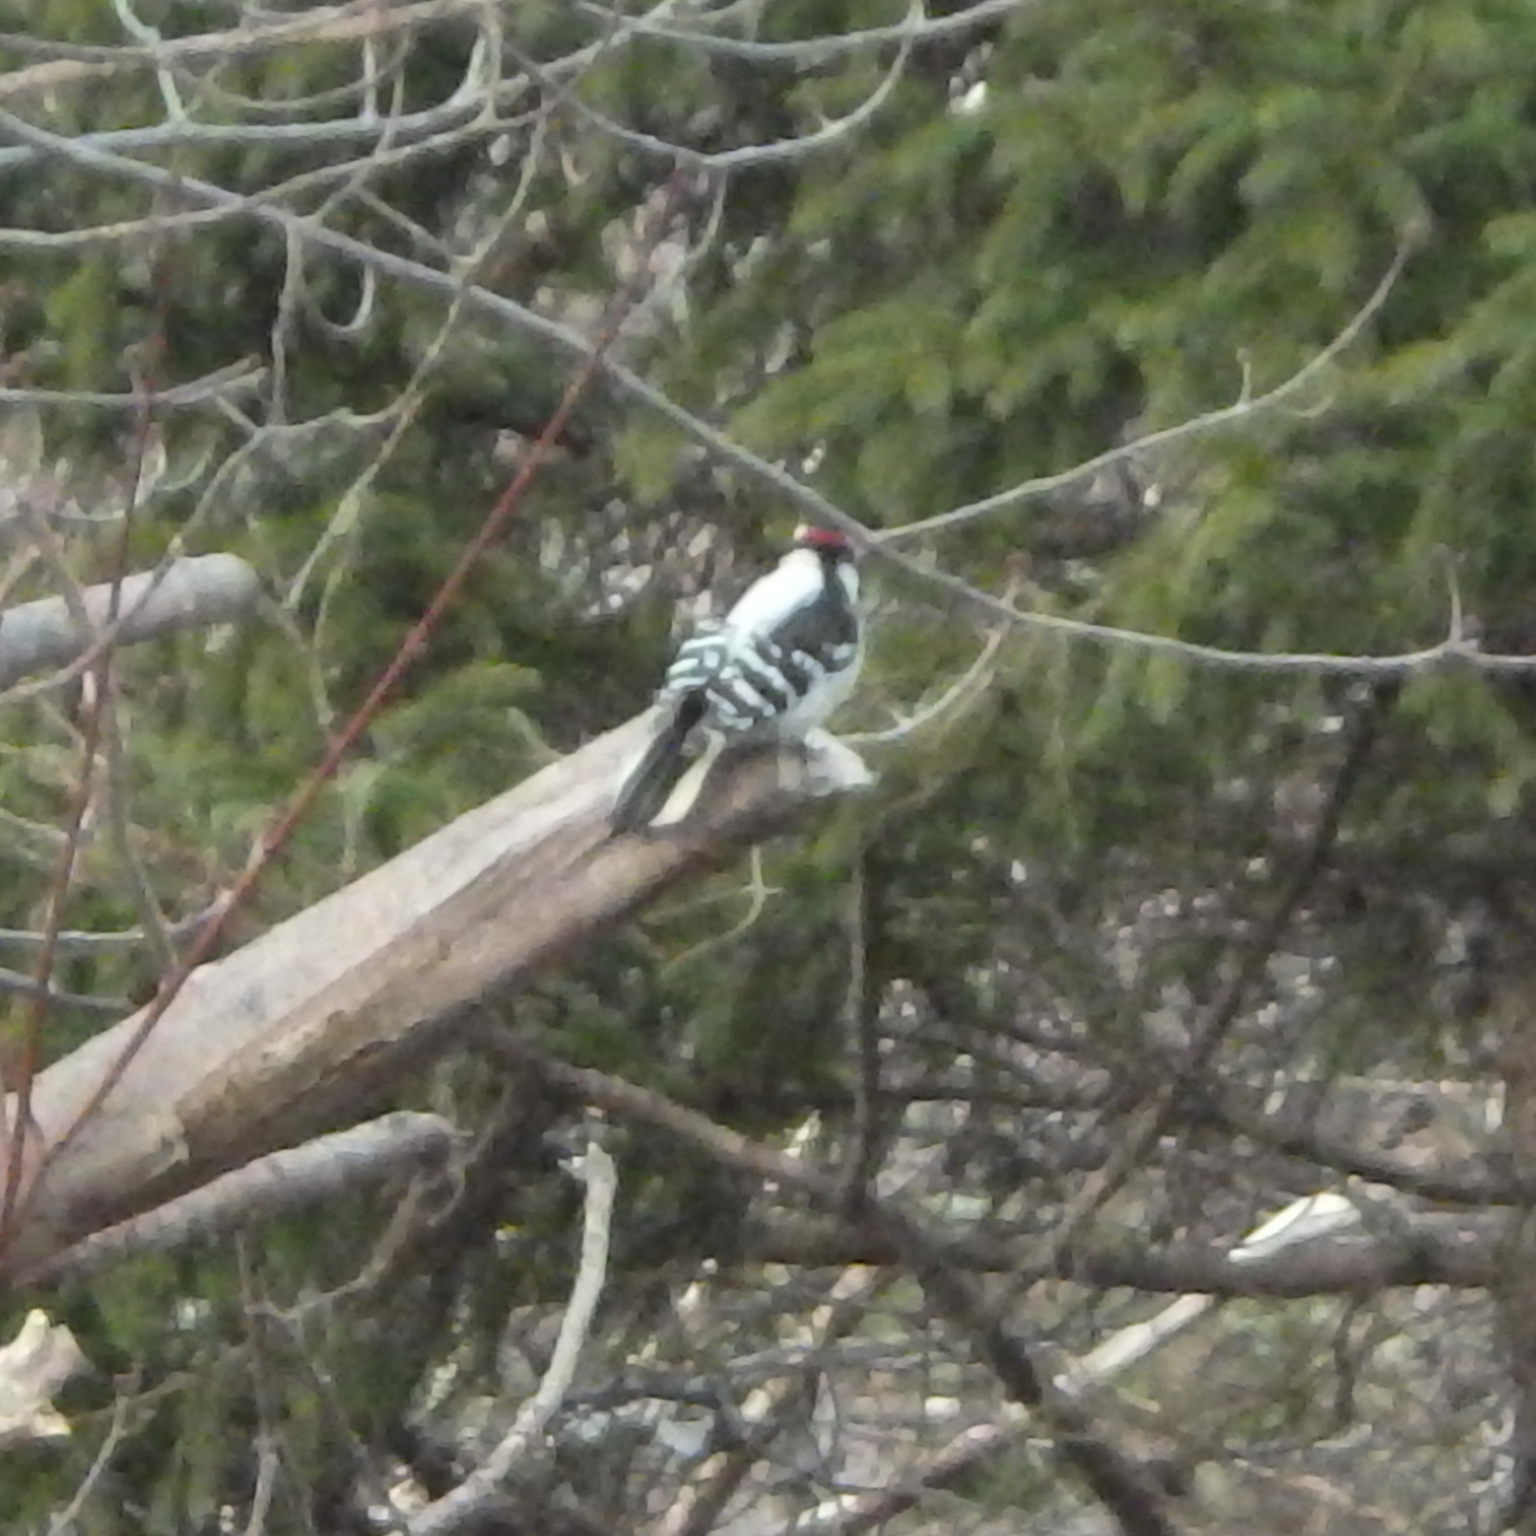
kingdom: Animalia
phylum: Chordata
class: Aves
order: Piciformes
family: Picidae
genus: Dryobates
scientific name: Dryobates pubescens
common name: Downy woodpecker
